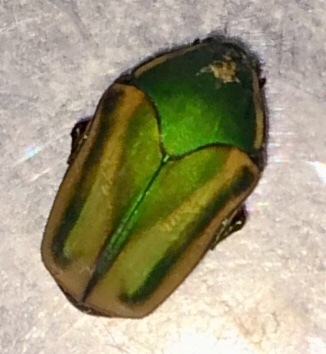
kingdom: Animalia
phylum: Arthropoda
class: Insecta
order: Coleoptera
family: Scarabaeidae
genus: Cotinis
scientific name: Cotinis nitida
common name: Common green june beetle
